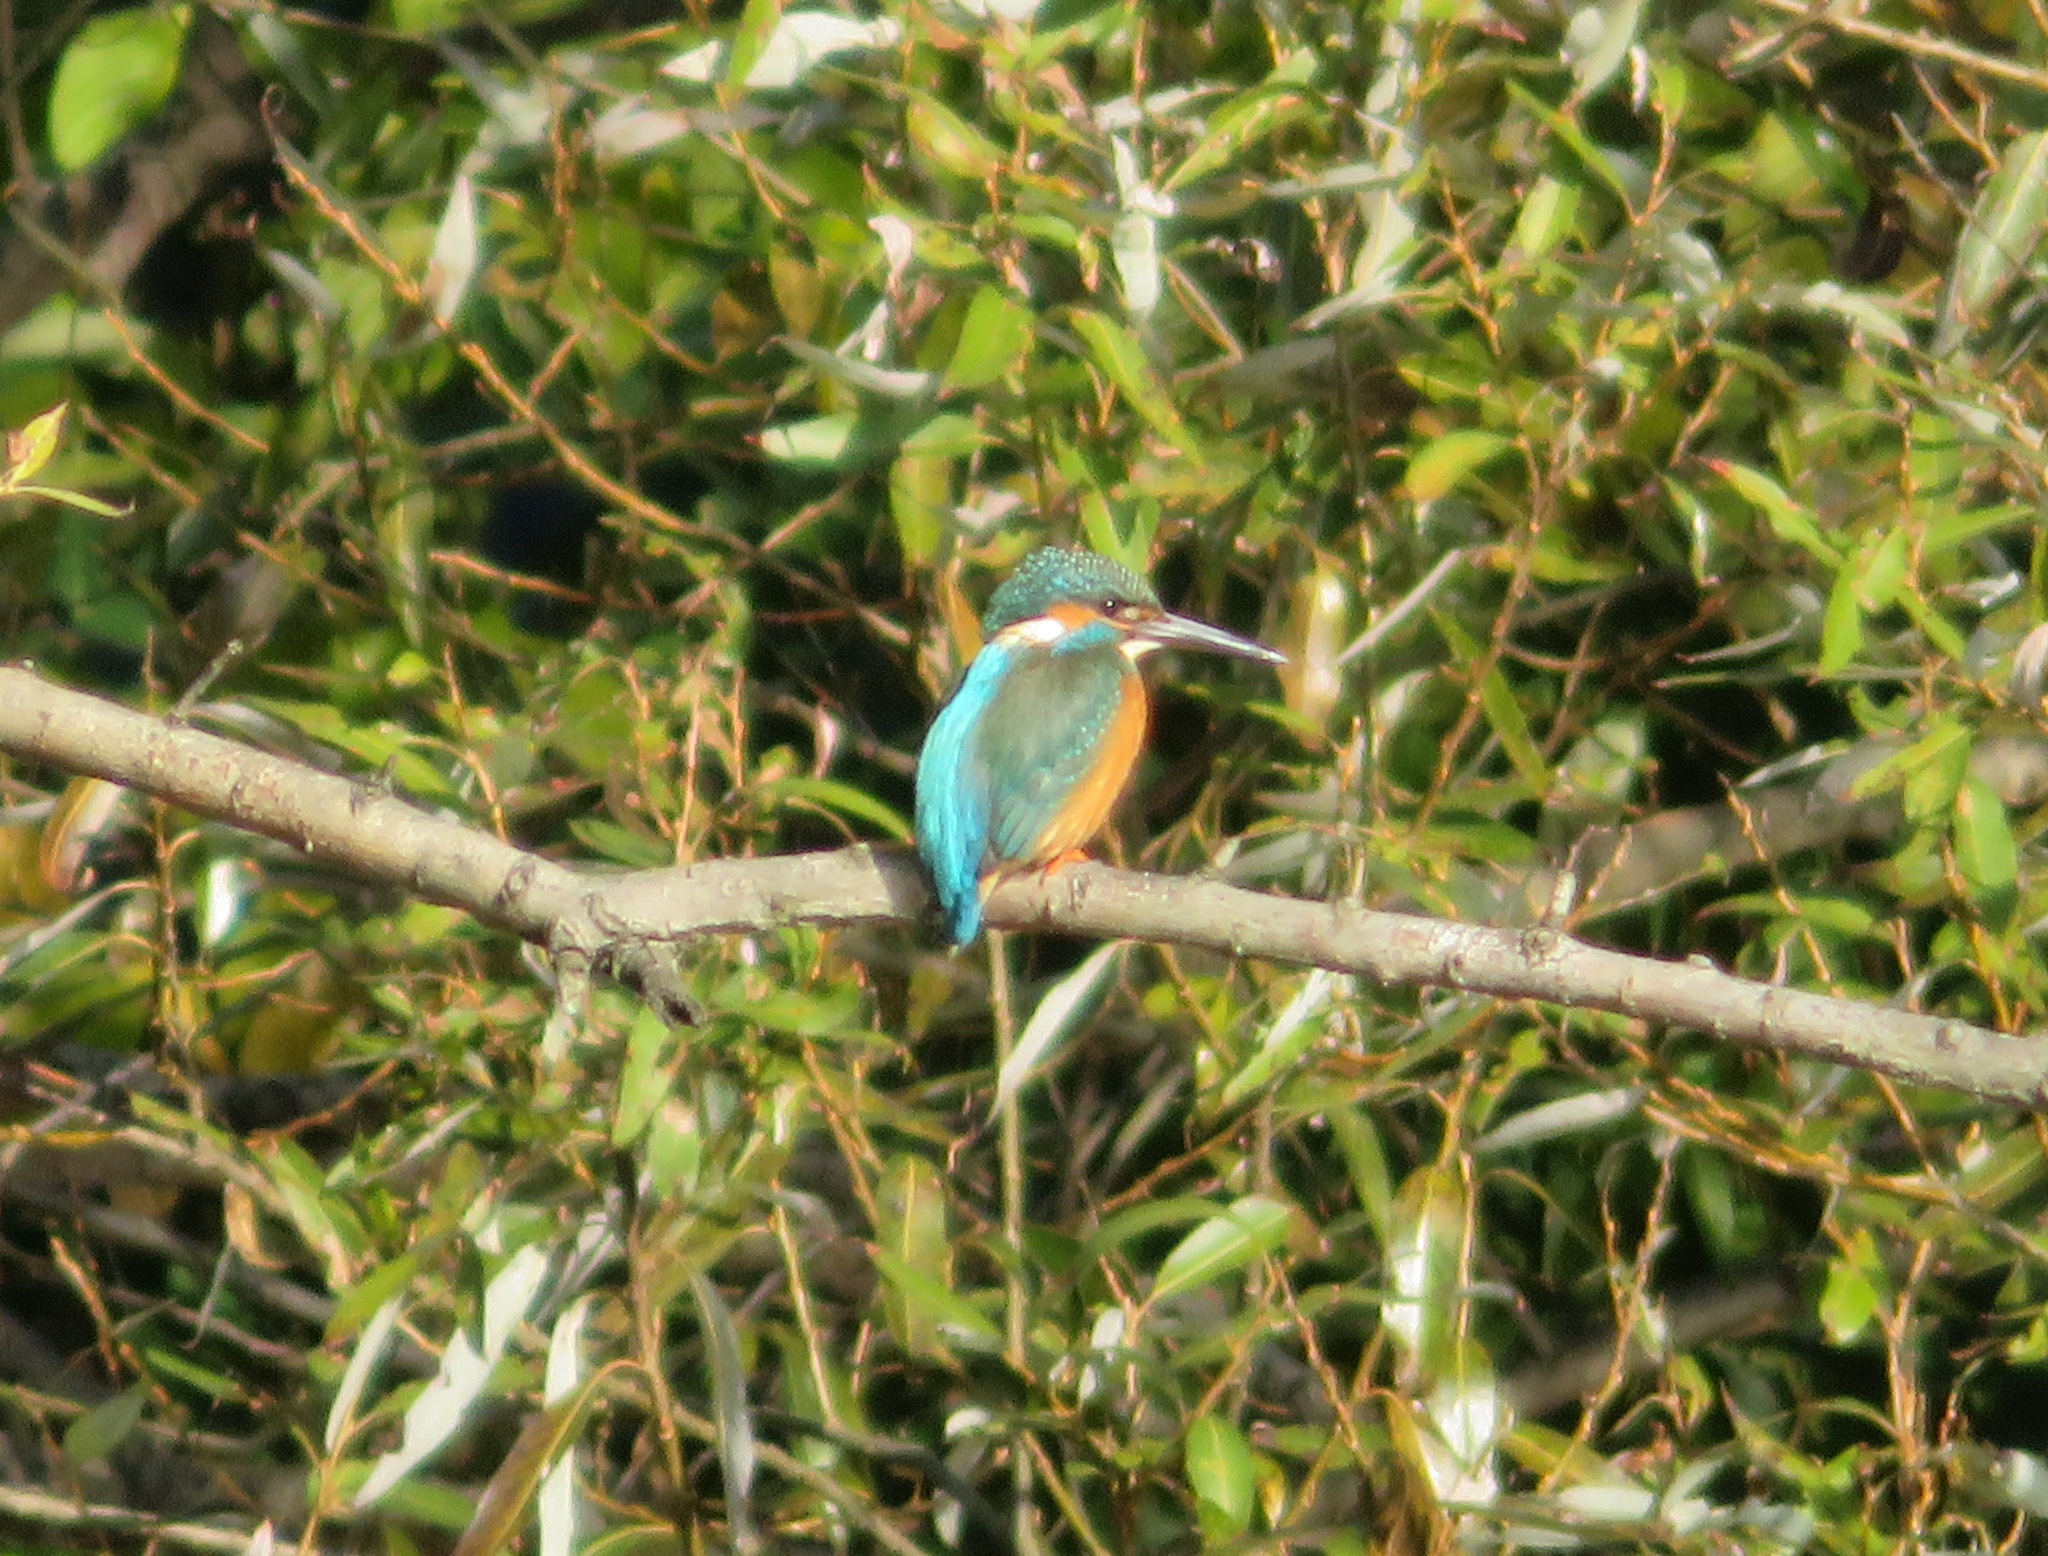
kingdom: Animalia
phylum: Chordata
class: Aves
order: Coraciiformes
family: Alcedinidae
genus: Alcedo
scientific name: Alcedo atthis
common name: Common kingfisher
